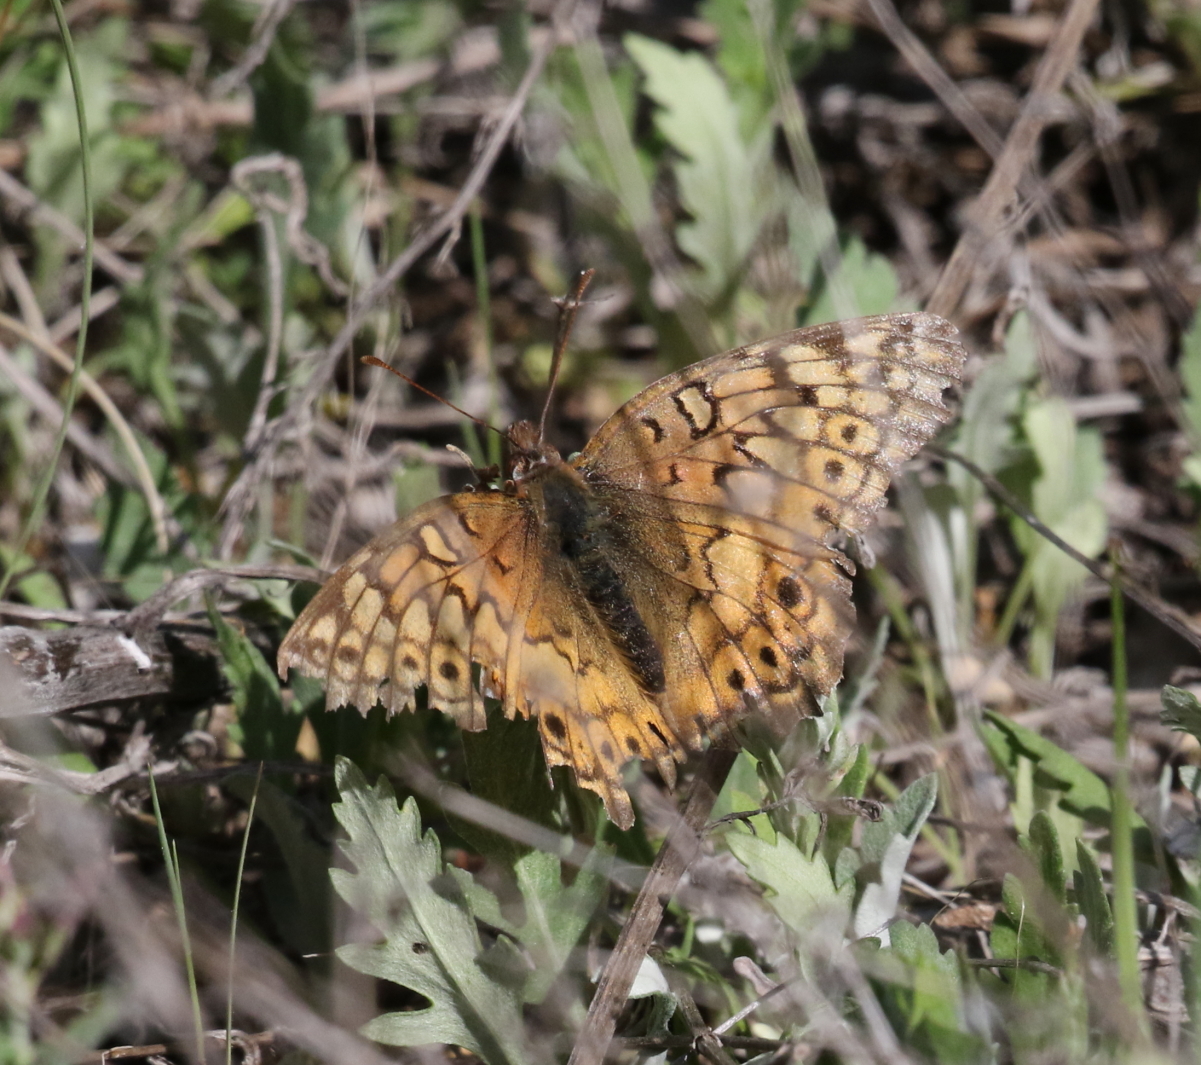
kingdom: Animalia
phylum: Arthropoda
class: Insecta
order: Lepidoptera
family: Nymphalidae
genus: Euptoieta
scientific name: Euptoieta claudia
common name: Variegated fritillary
